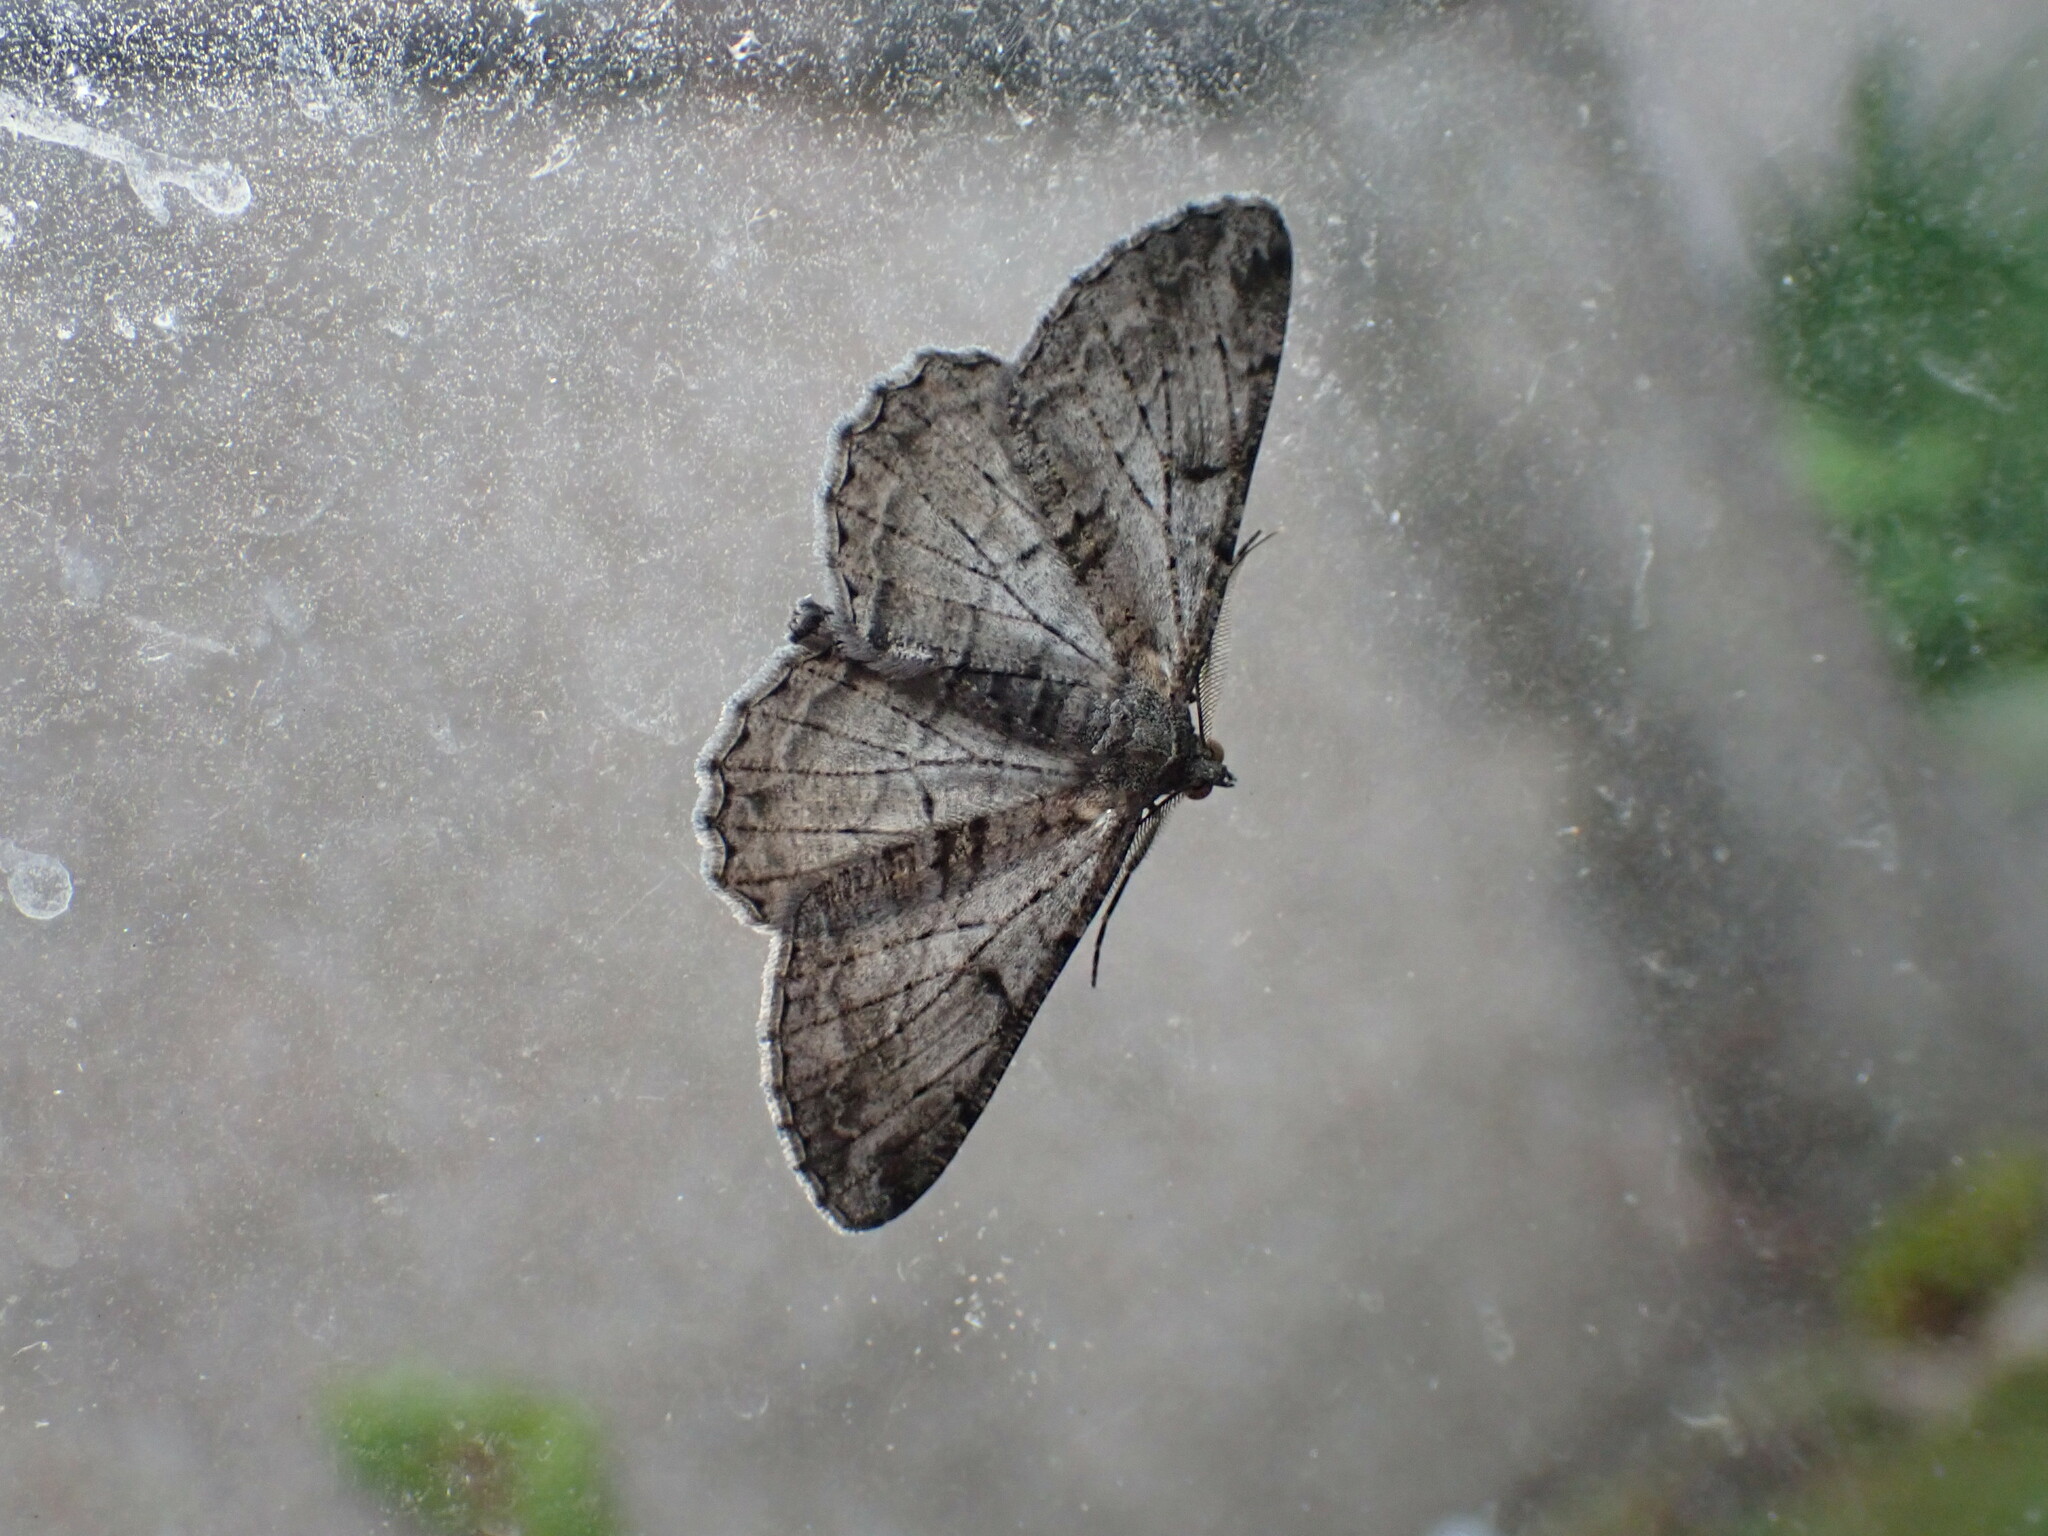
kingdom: Animalia
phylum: Arthropoda
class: Insecta
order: Lepidoptera
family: Geometridae
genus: Peribatodes
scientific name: Peribatodes rhomboidaria
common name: Willow beauty
